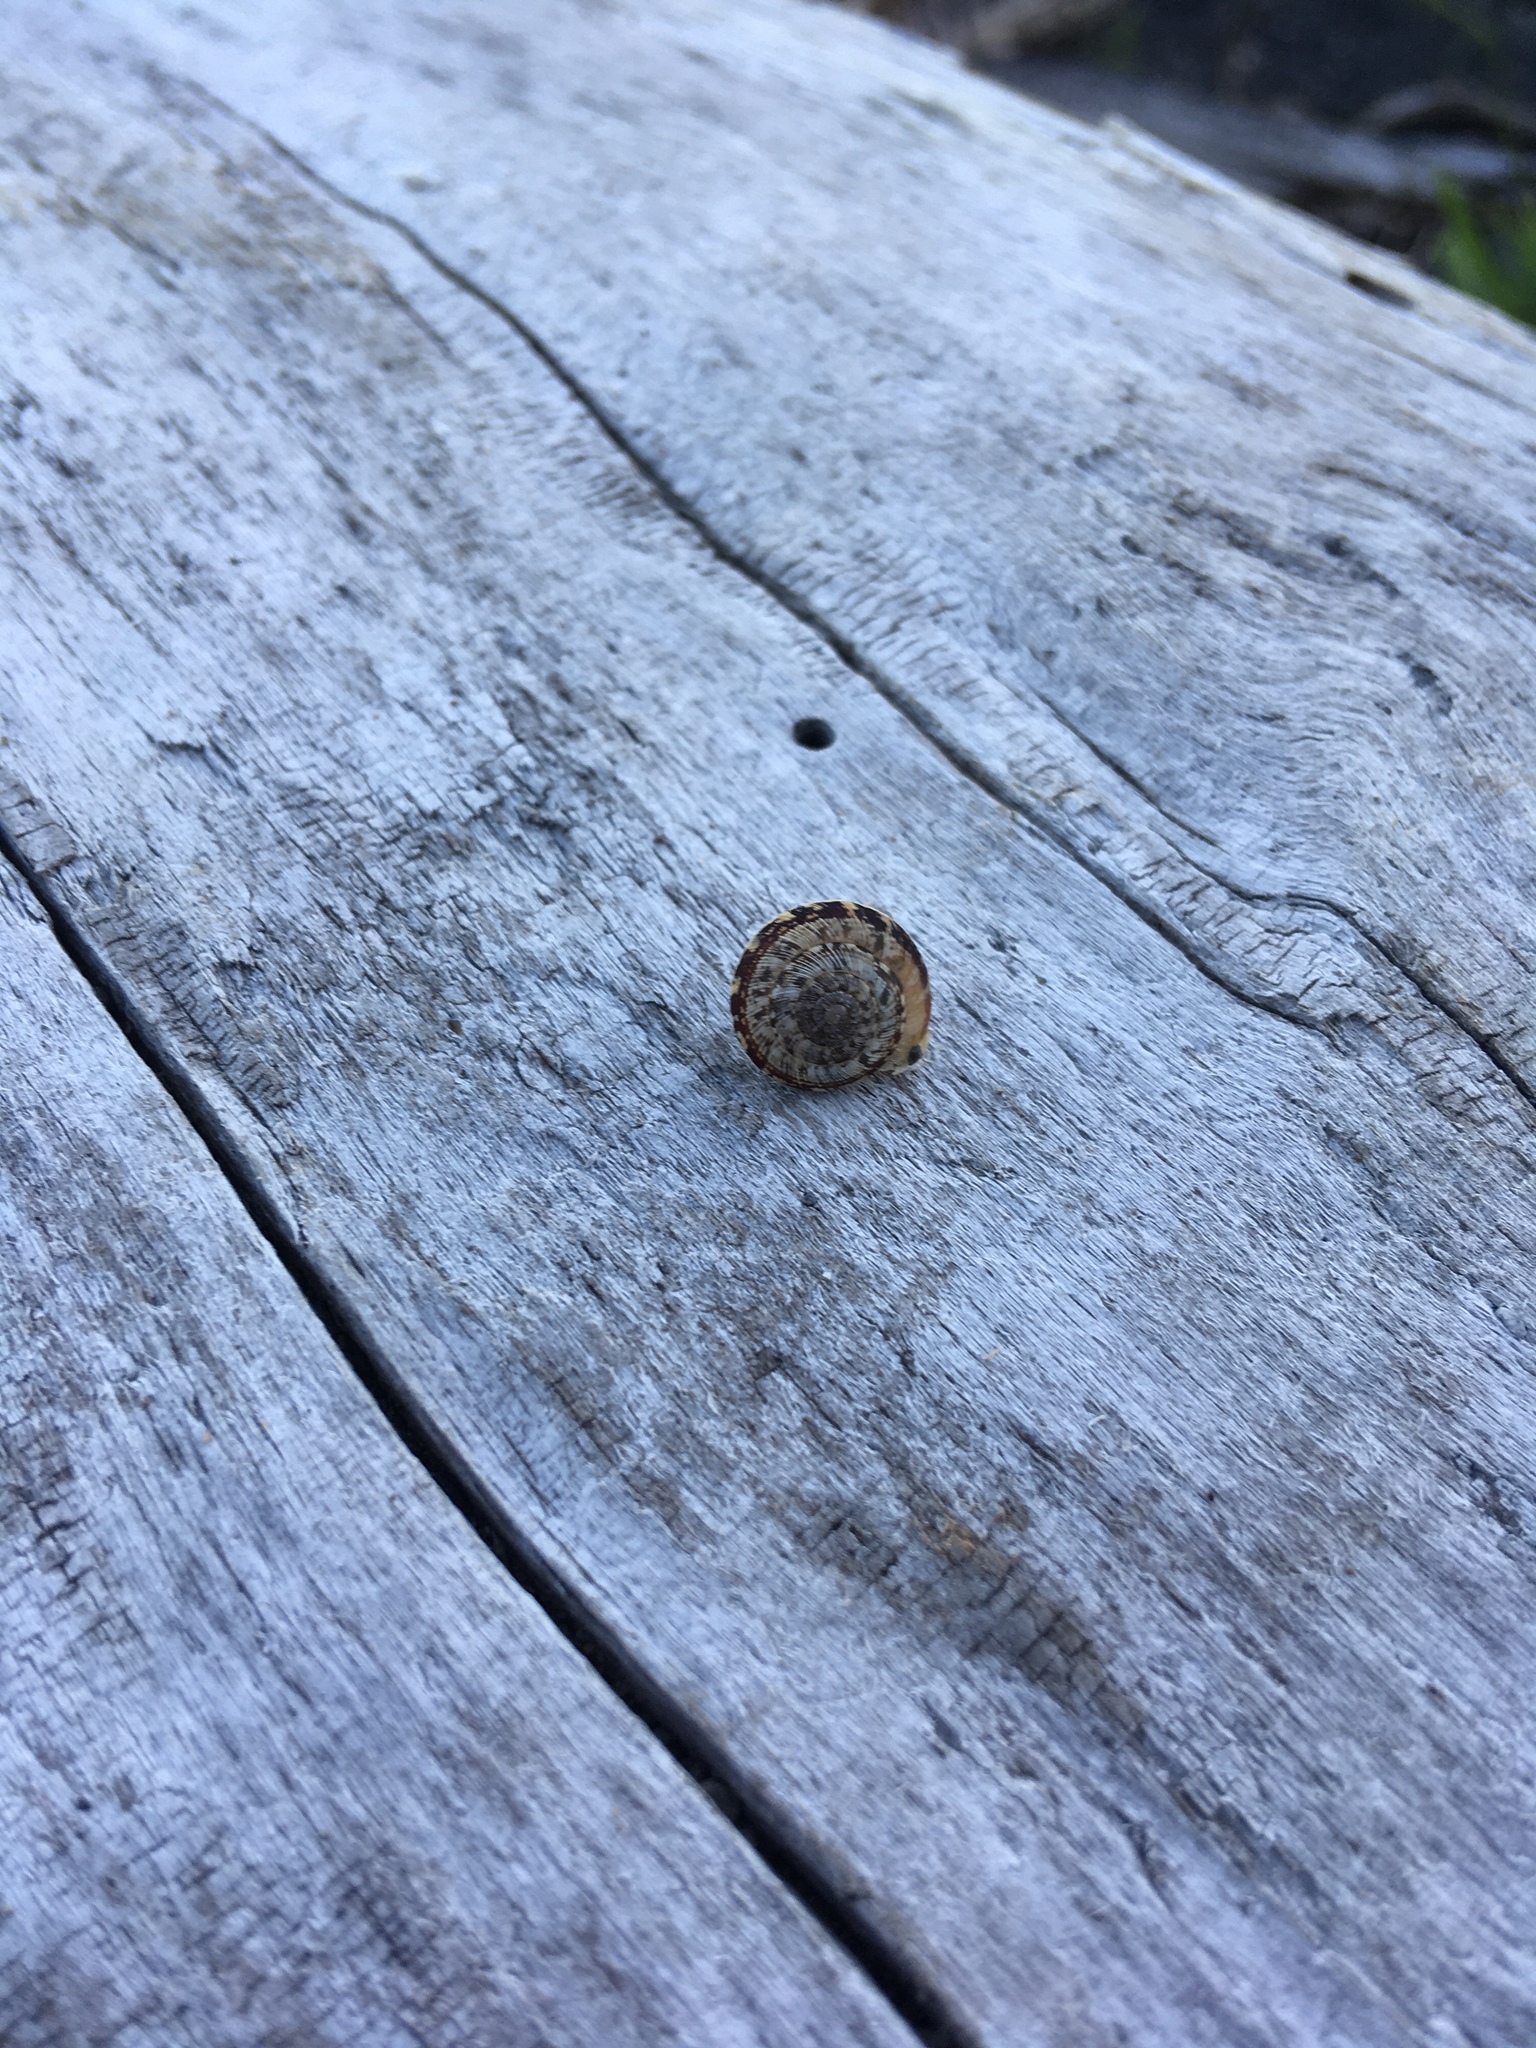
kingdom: Animalia
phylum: Mollusca
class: Gastropoda
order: Stylommatophora
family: Geomitridae
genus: Xeroplexa
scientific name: Xeroplexa intersecta
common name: Wrinkled snail
